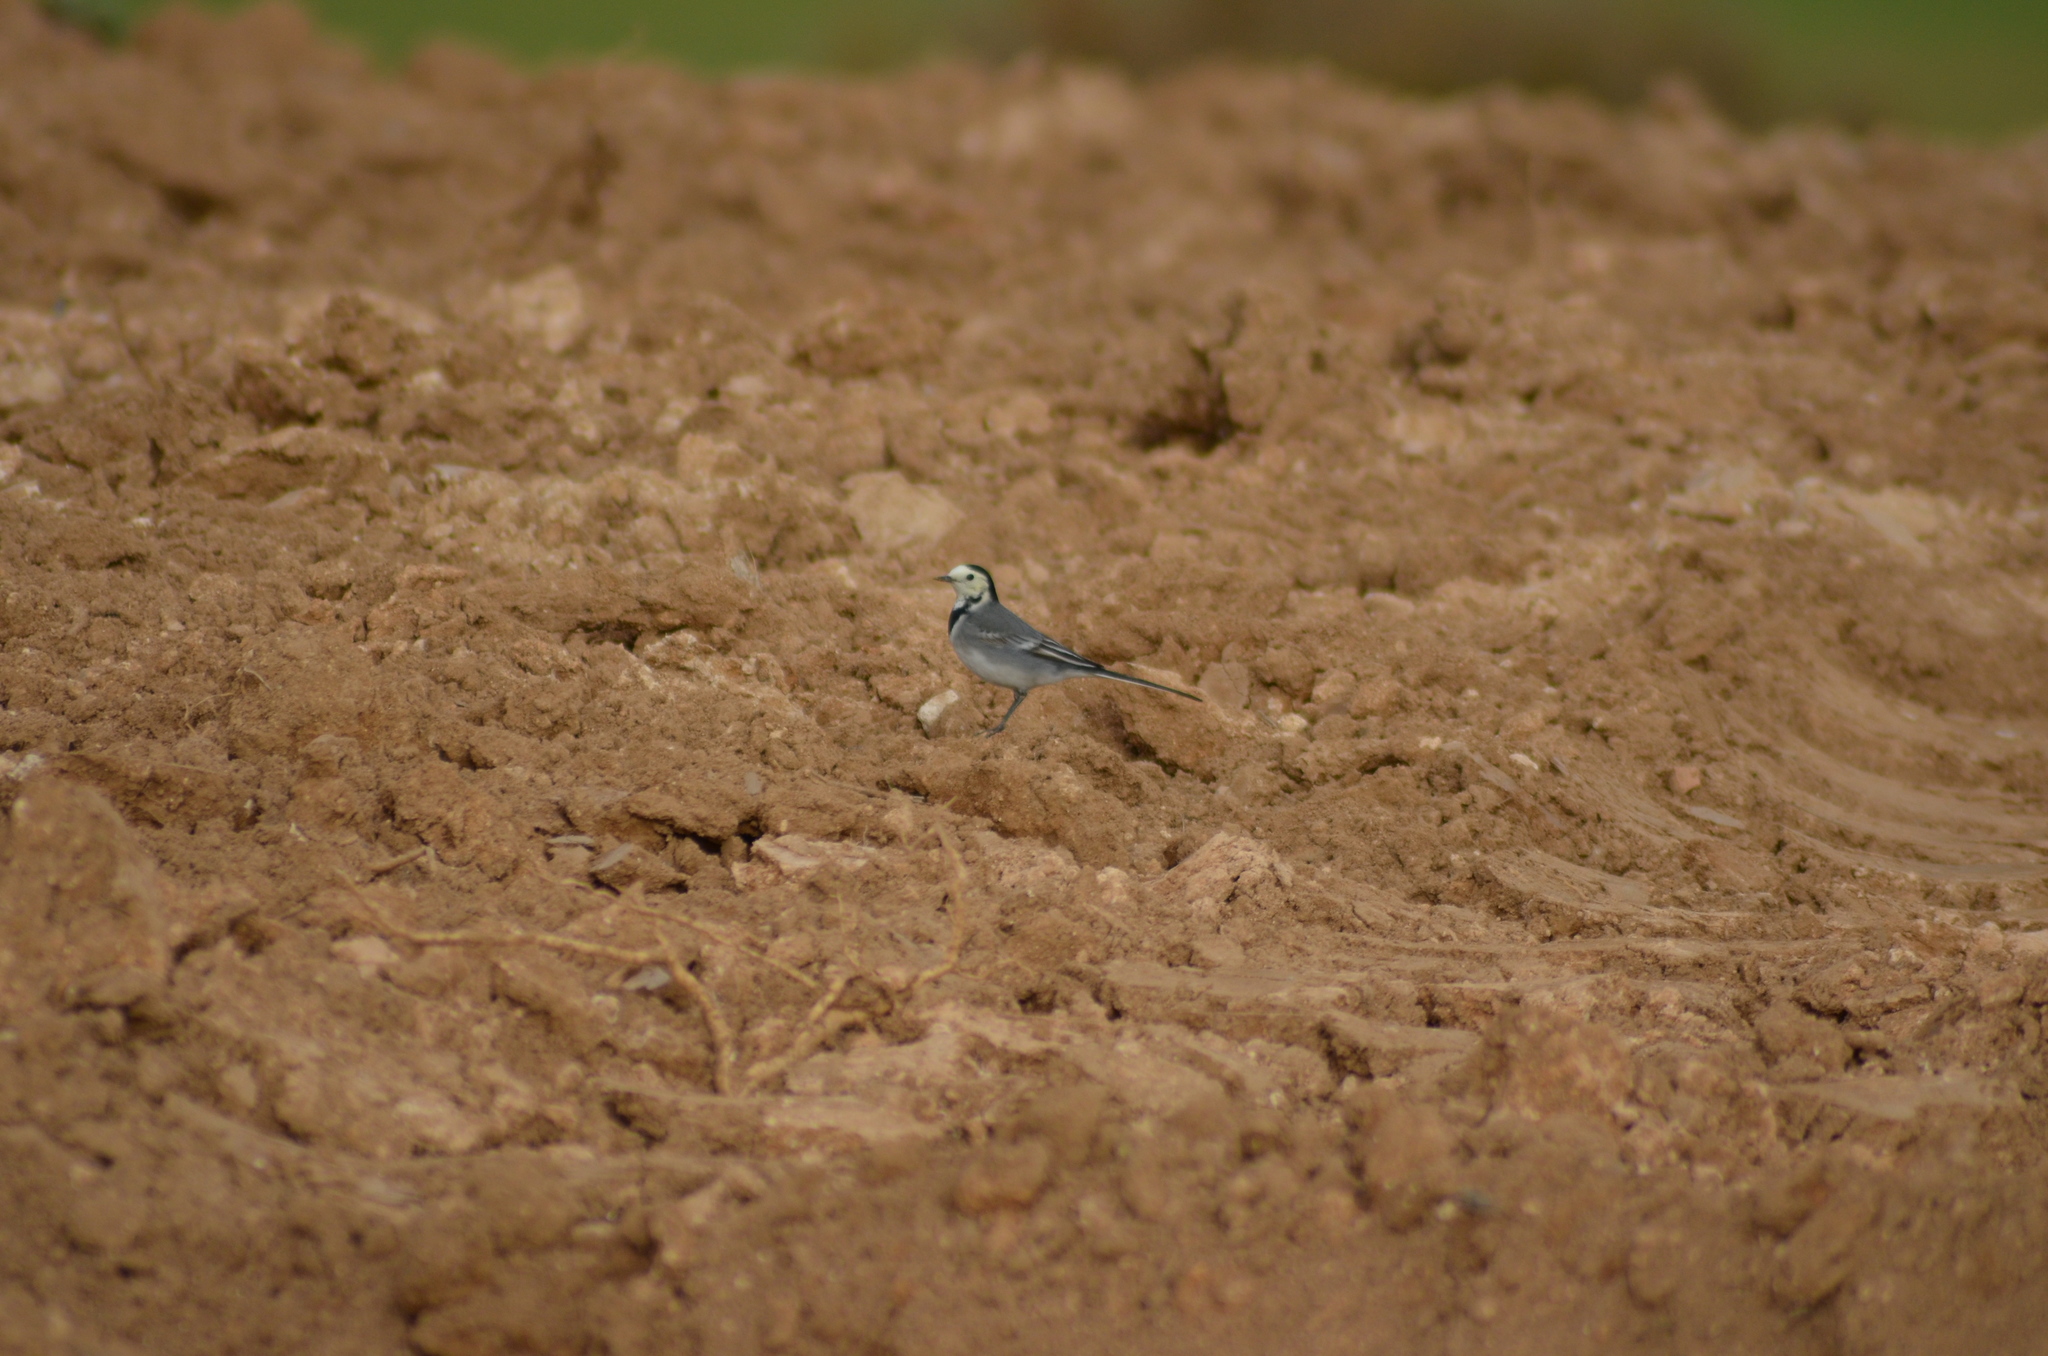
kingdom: Animalia
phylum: Chordata
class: Aves
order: Passeriformes
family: Motacillidae
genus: Motacilla
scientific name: Motacilla alba
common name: White wagtail
